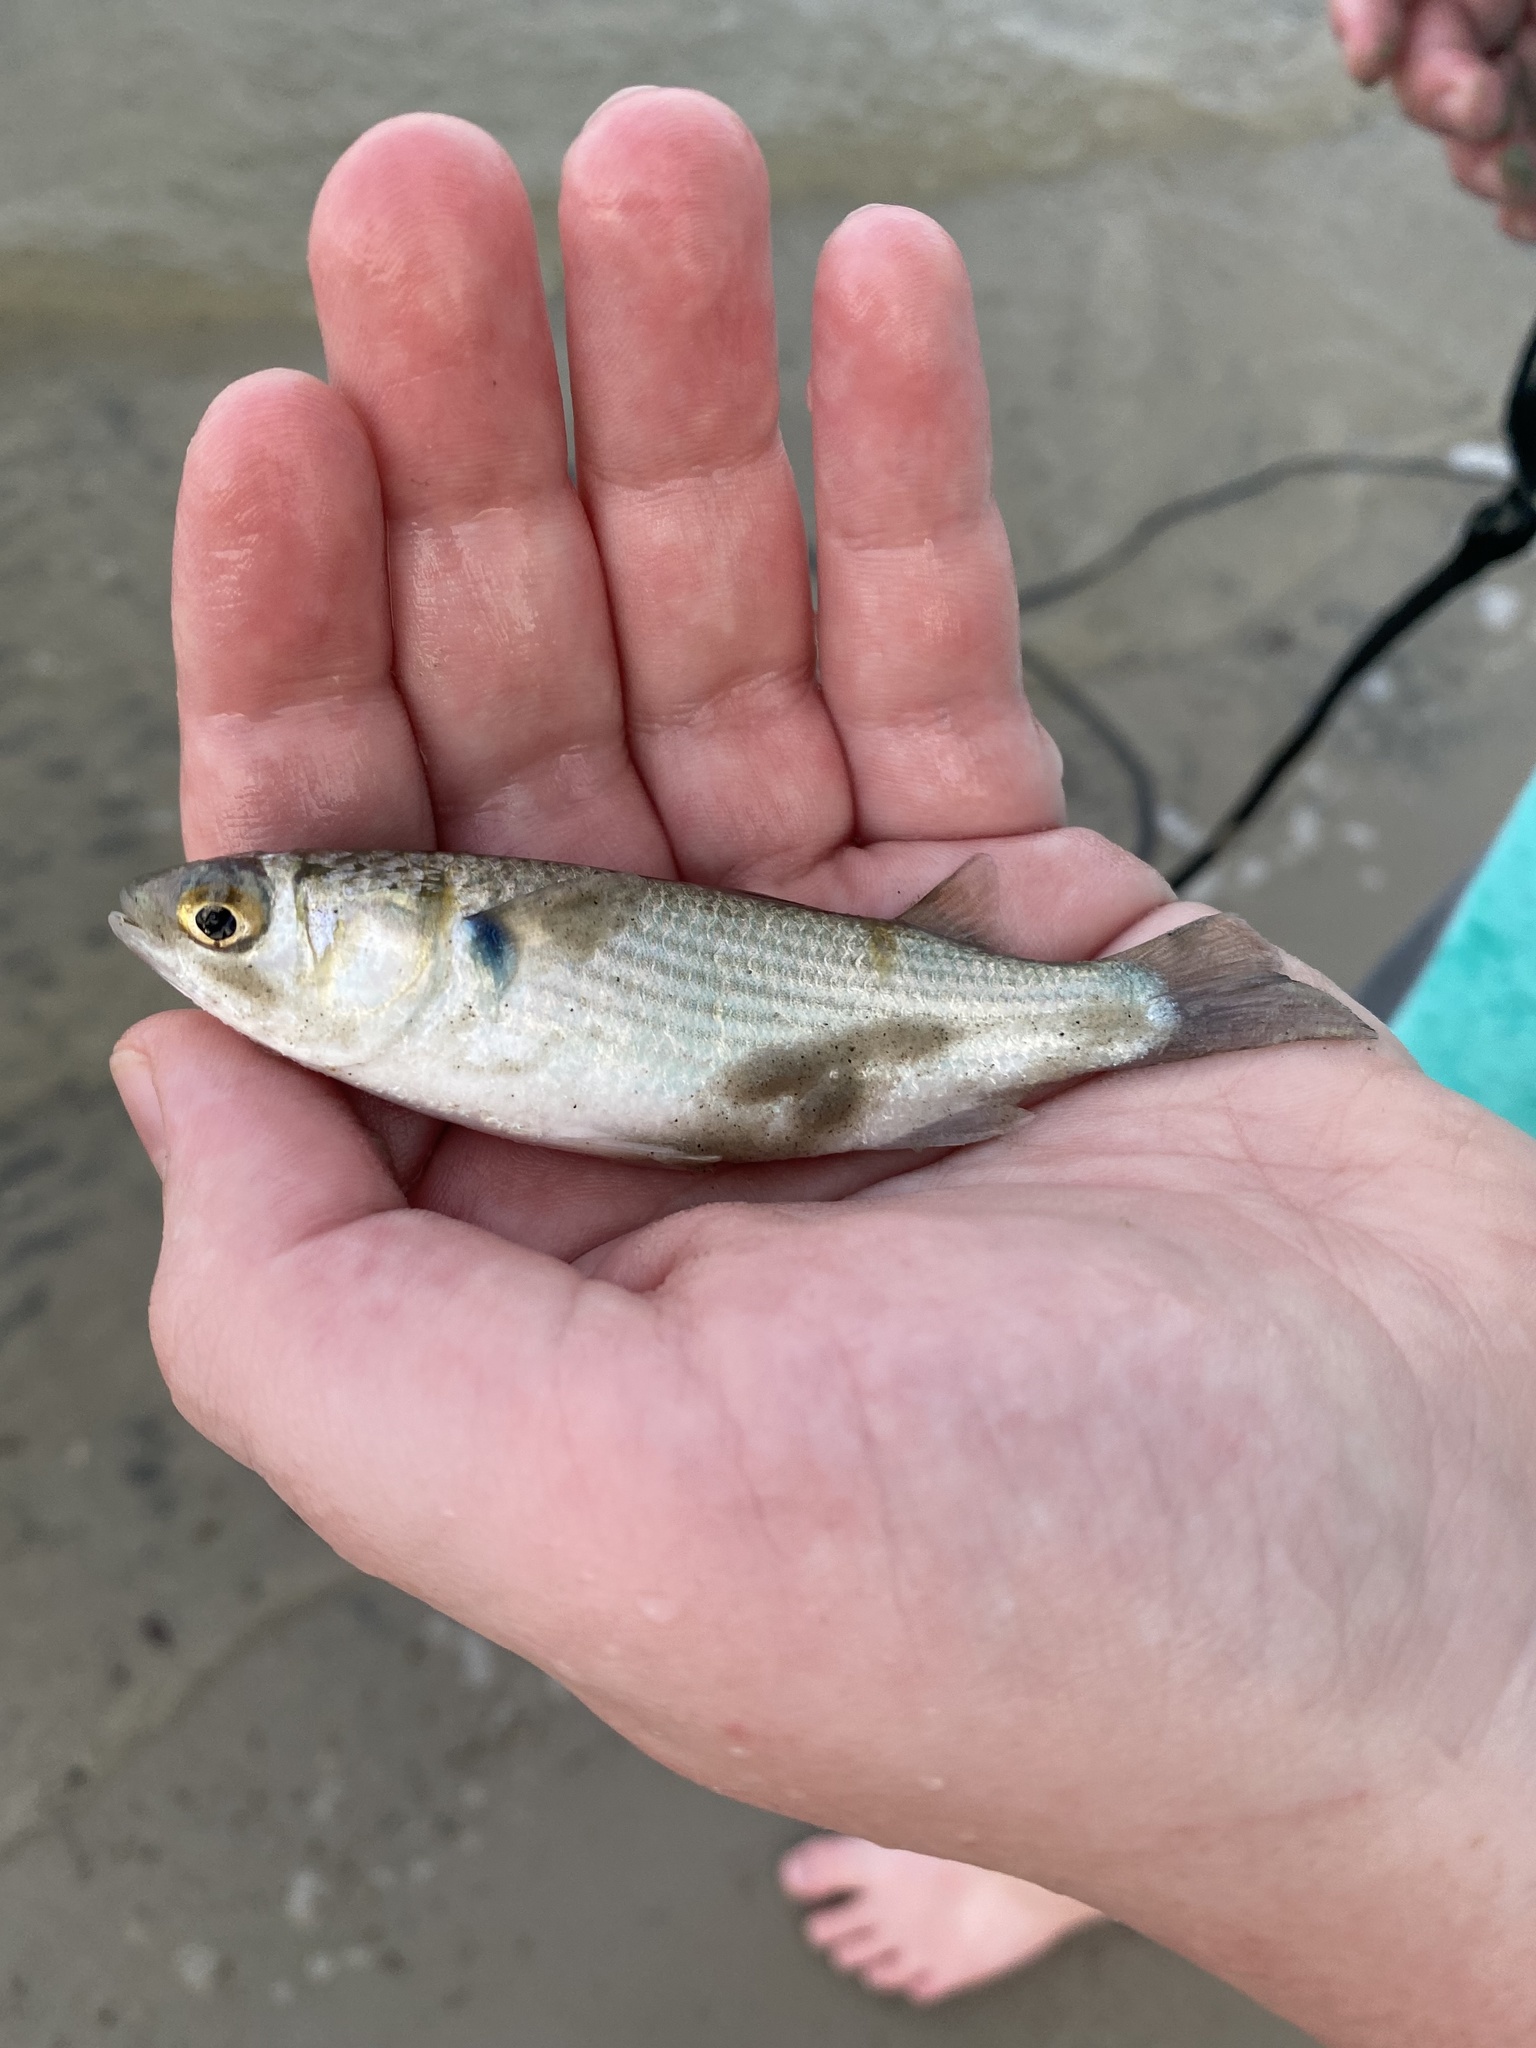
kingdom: Animalia
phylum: Chordata
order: Mugiliformes
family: Mugilidae
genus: Mugil
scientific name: Mugil cephalus
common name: Grey mullet
